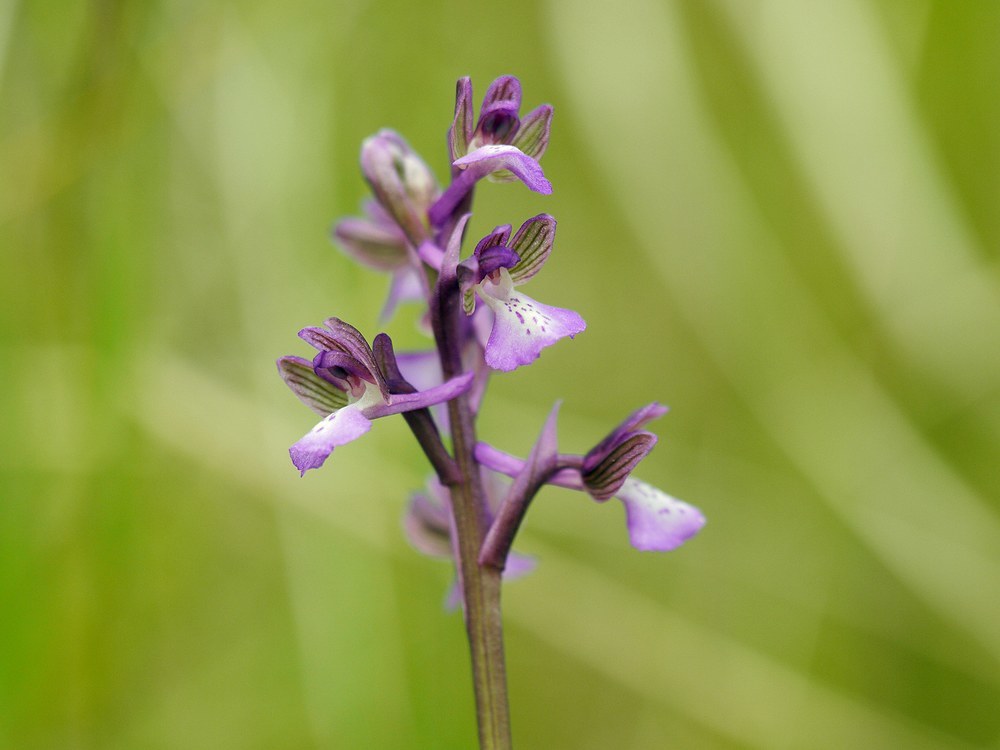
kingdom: Plantae
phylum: Tracheophyta
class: Liliopsida
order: Asparagales
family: Orchidaceae
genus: Anacamptis
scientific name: Anacamptis morio
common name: Green-winged orchid
